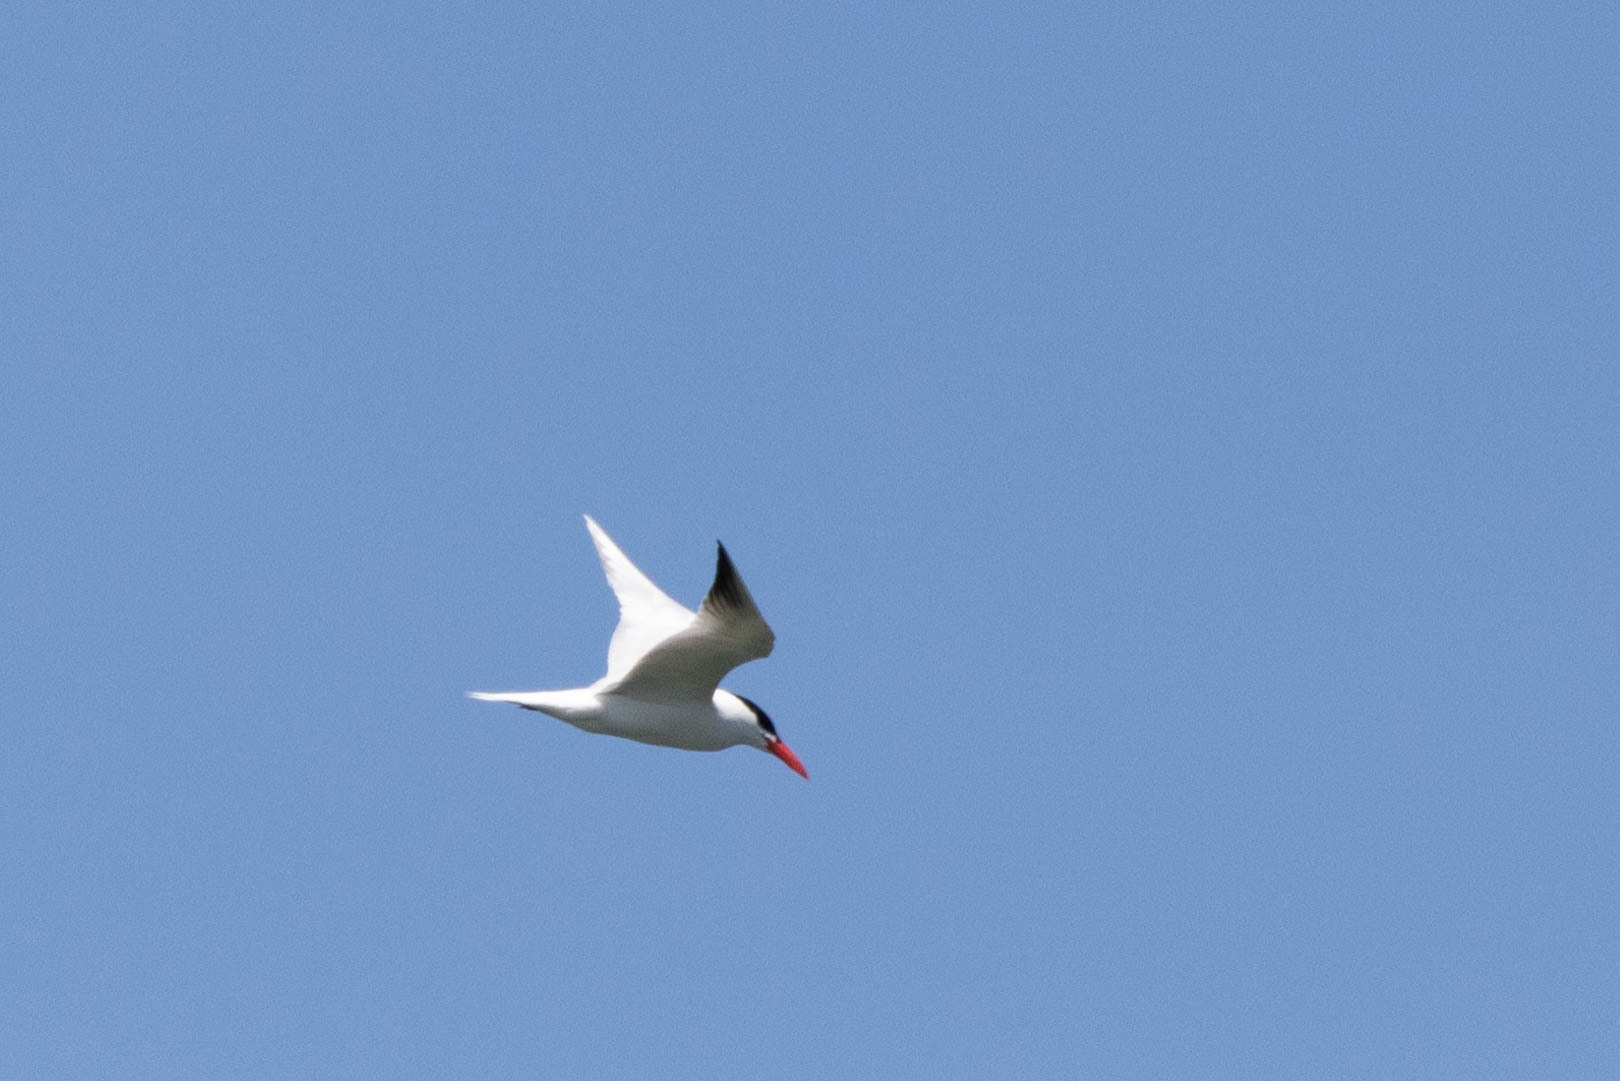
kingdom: Animalia
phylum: Chordata
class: Aves
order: Charadriiformes
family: Laridae
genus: Hydroprogne
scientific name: Hydroprogne caspia
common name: Caspian tern
